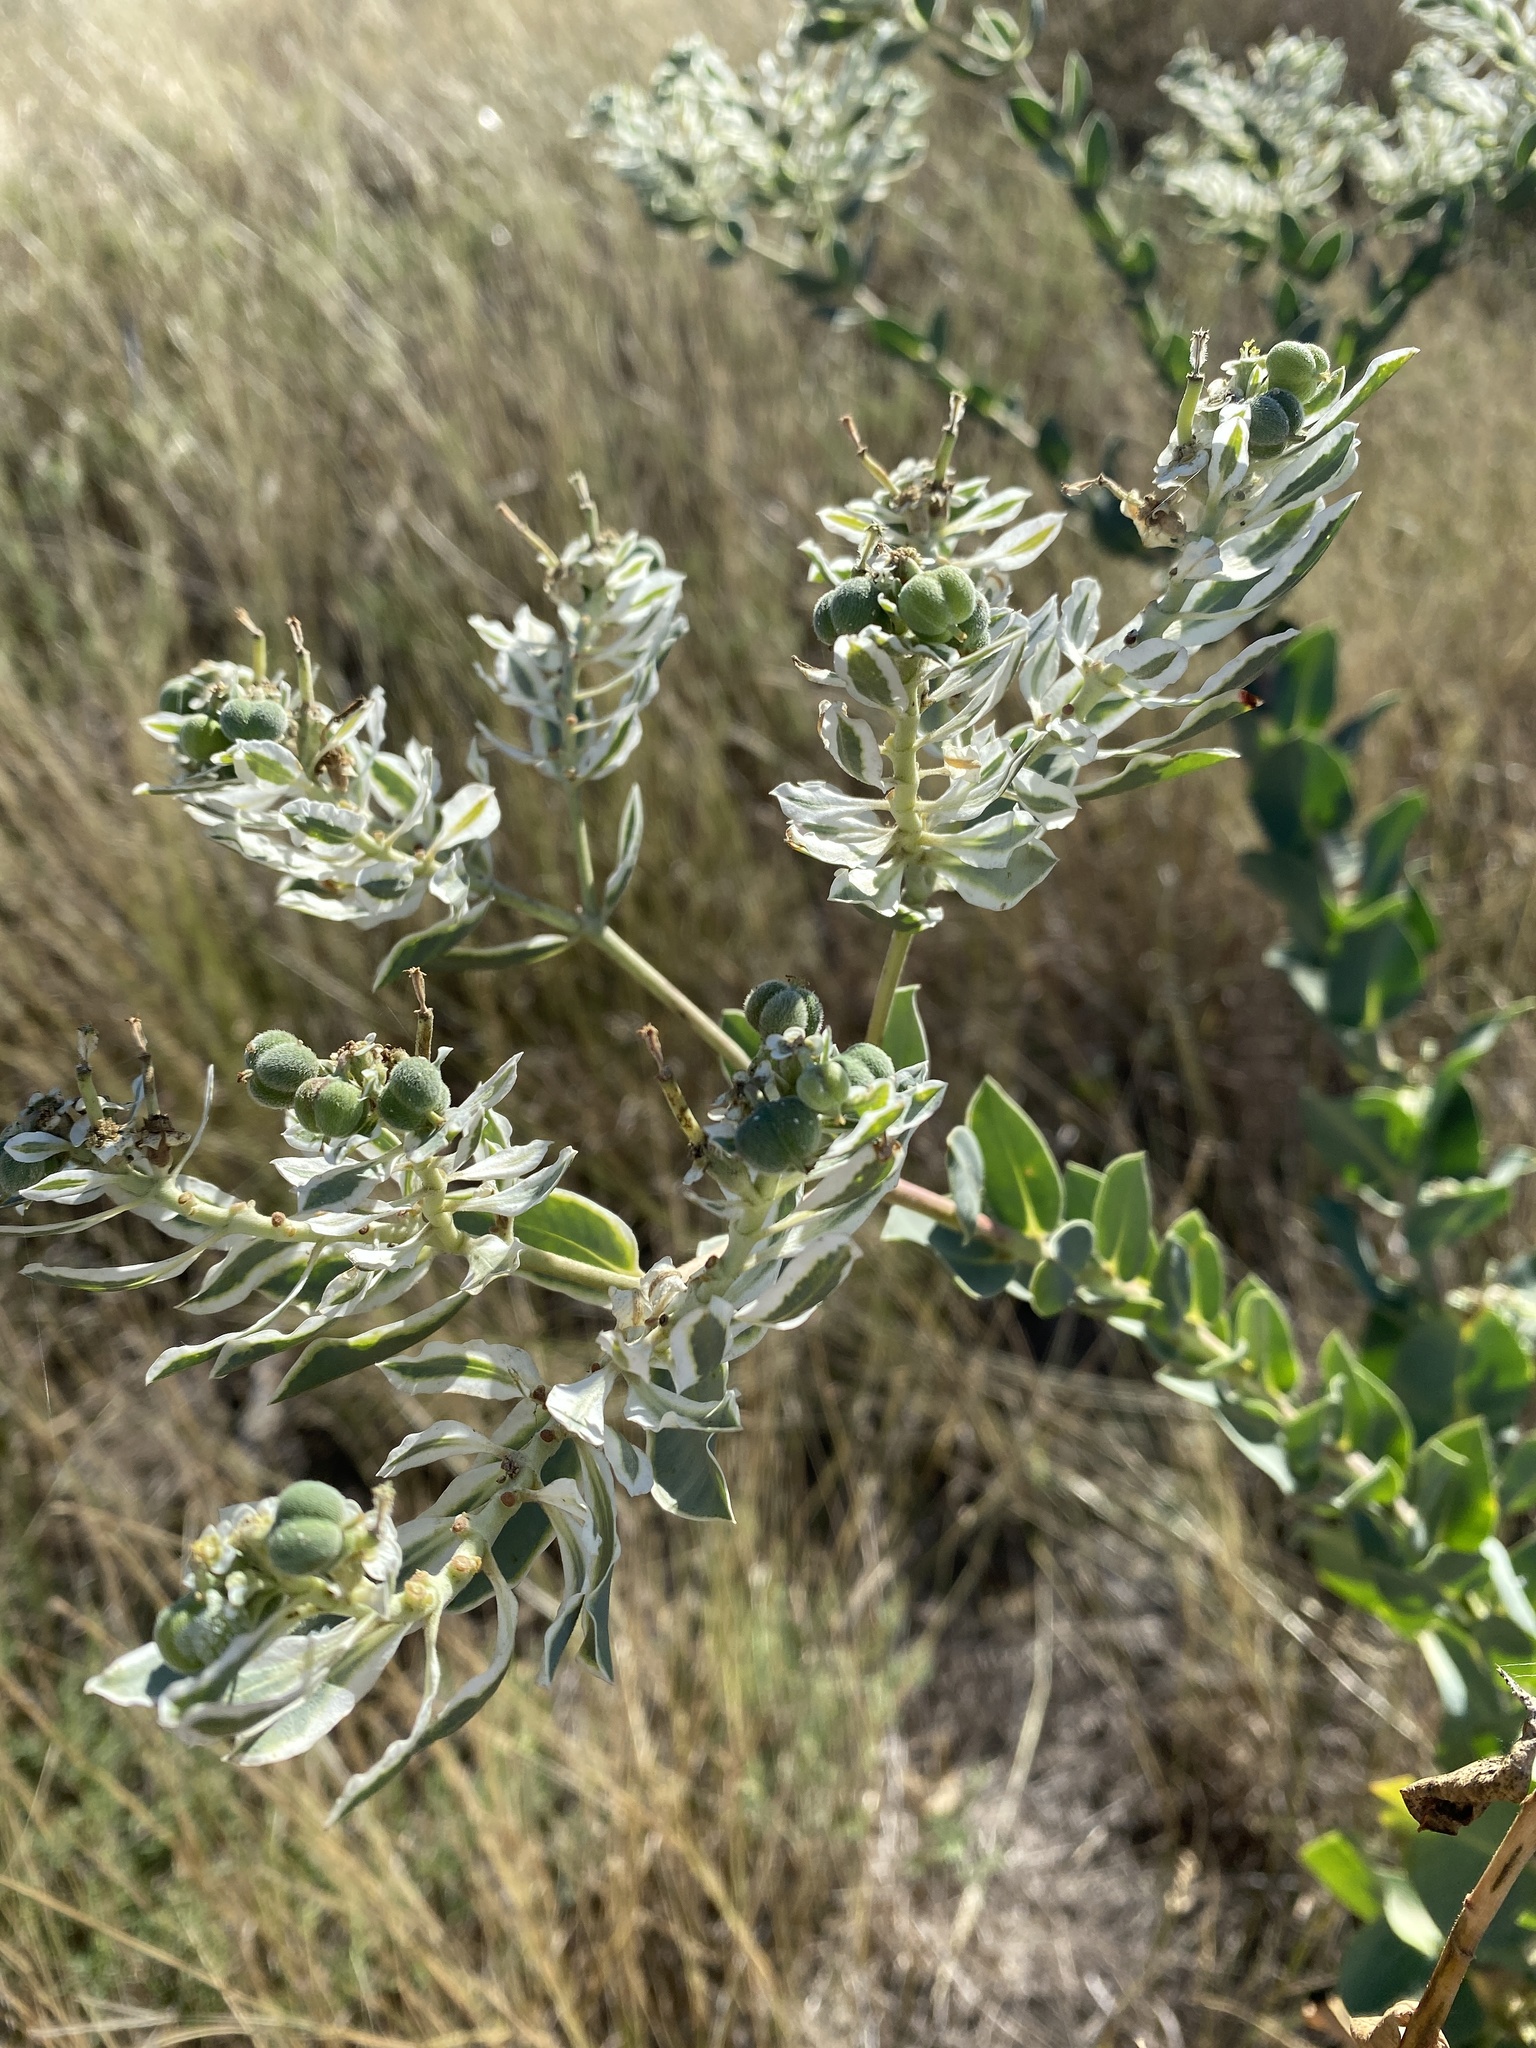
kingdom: Plantae
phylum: Tracheophyta
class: Magnoliopsida
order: Malpighiales
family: Euphorbiaceae
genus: Euphorbia
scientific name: Euphorbia marginata
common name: Ghostweed
